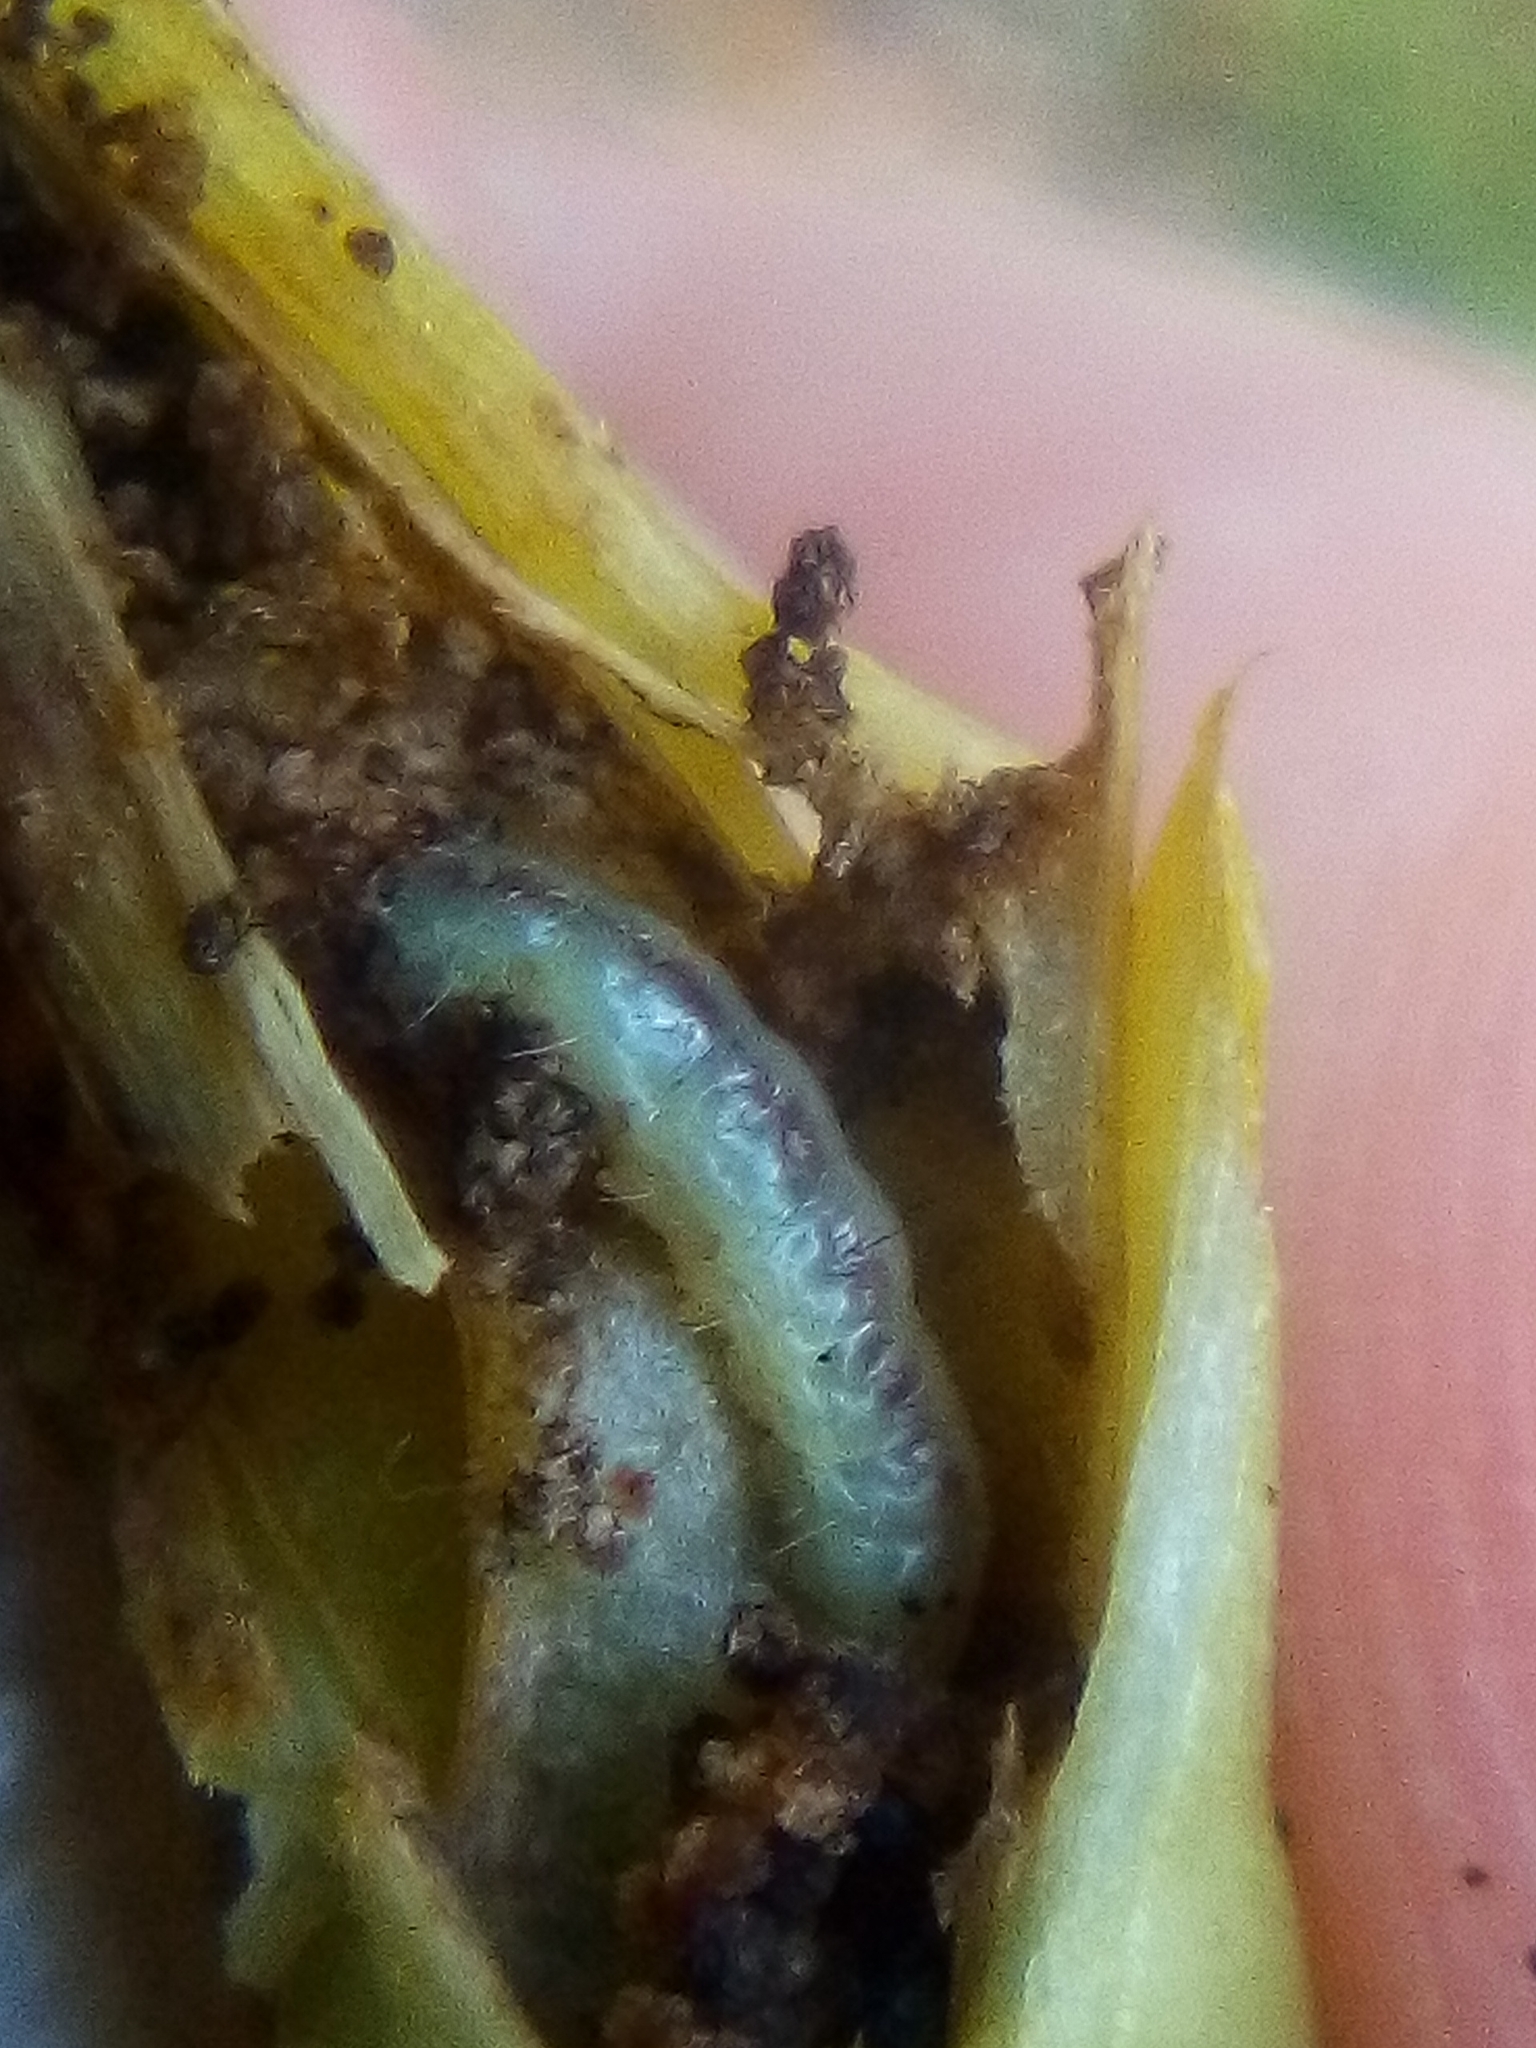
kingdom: Animalia
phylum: Arthropoda
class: Insecta
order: Lepidoptera
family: Galacticidae
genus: Tanaoctena
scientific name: Tanaoctena dubia
